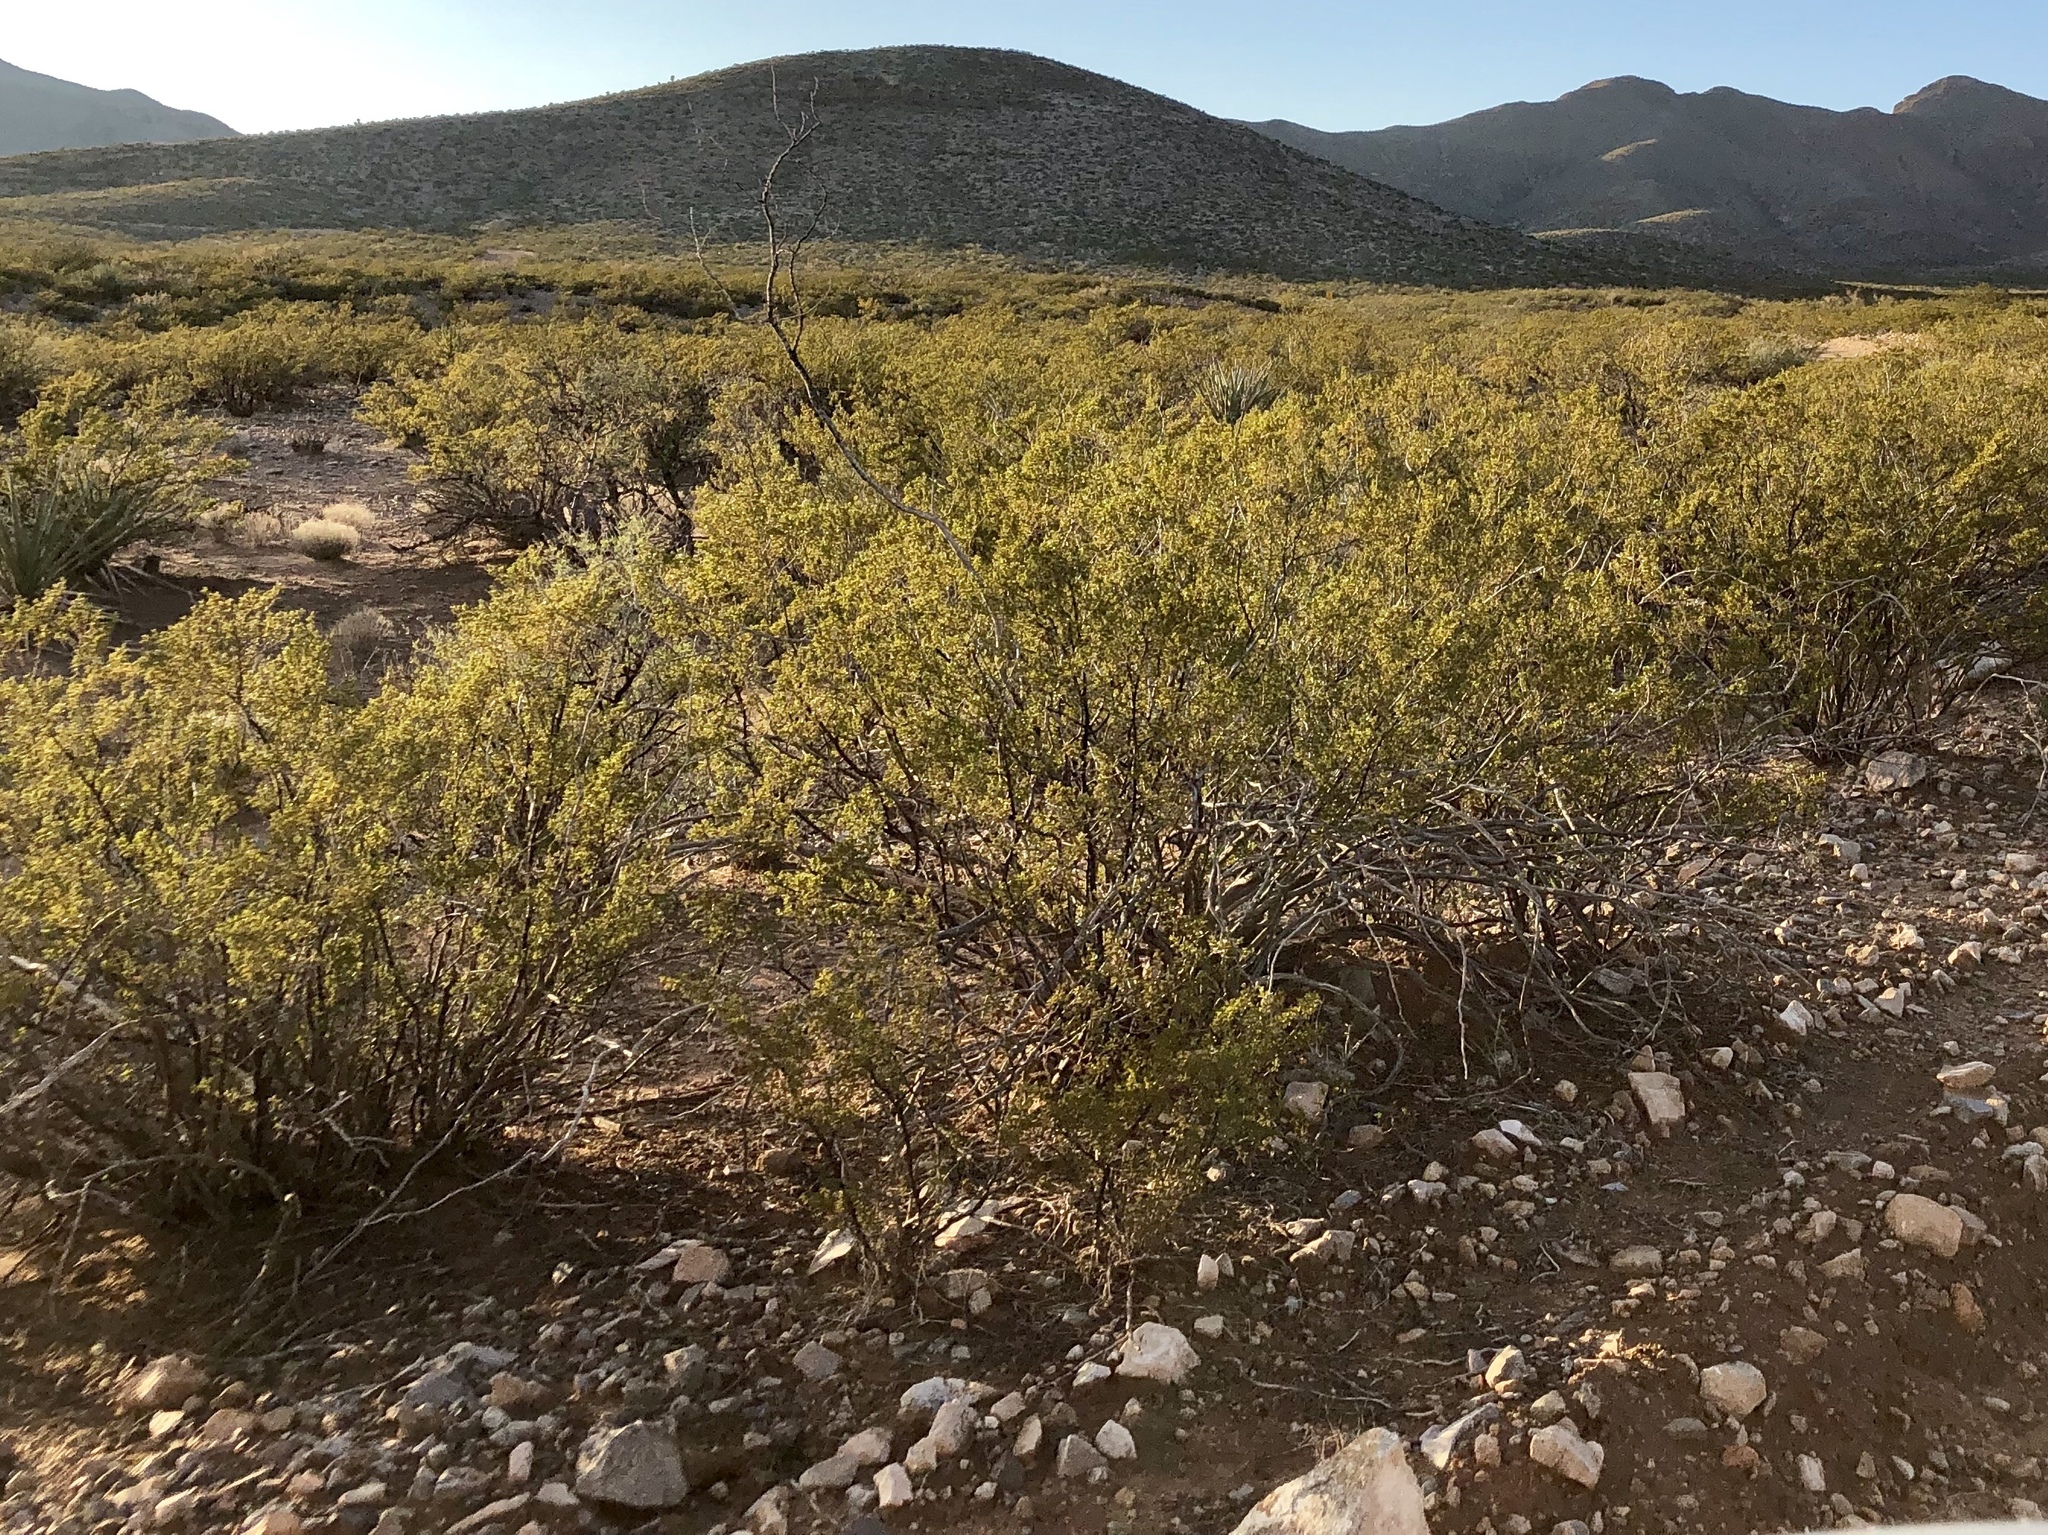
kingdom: Plantae
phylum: Tracheophyta
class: Magnoliopsida
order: Zygophyllales
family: Zygophyllaceae
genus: Larrea
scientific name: Larrea tridentata
